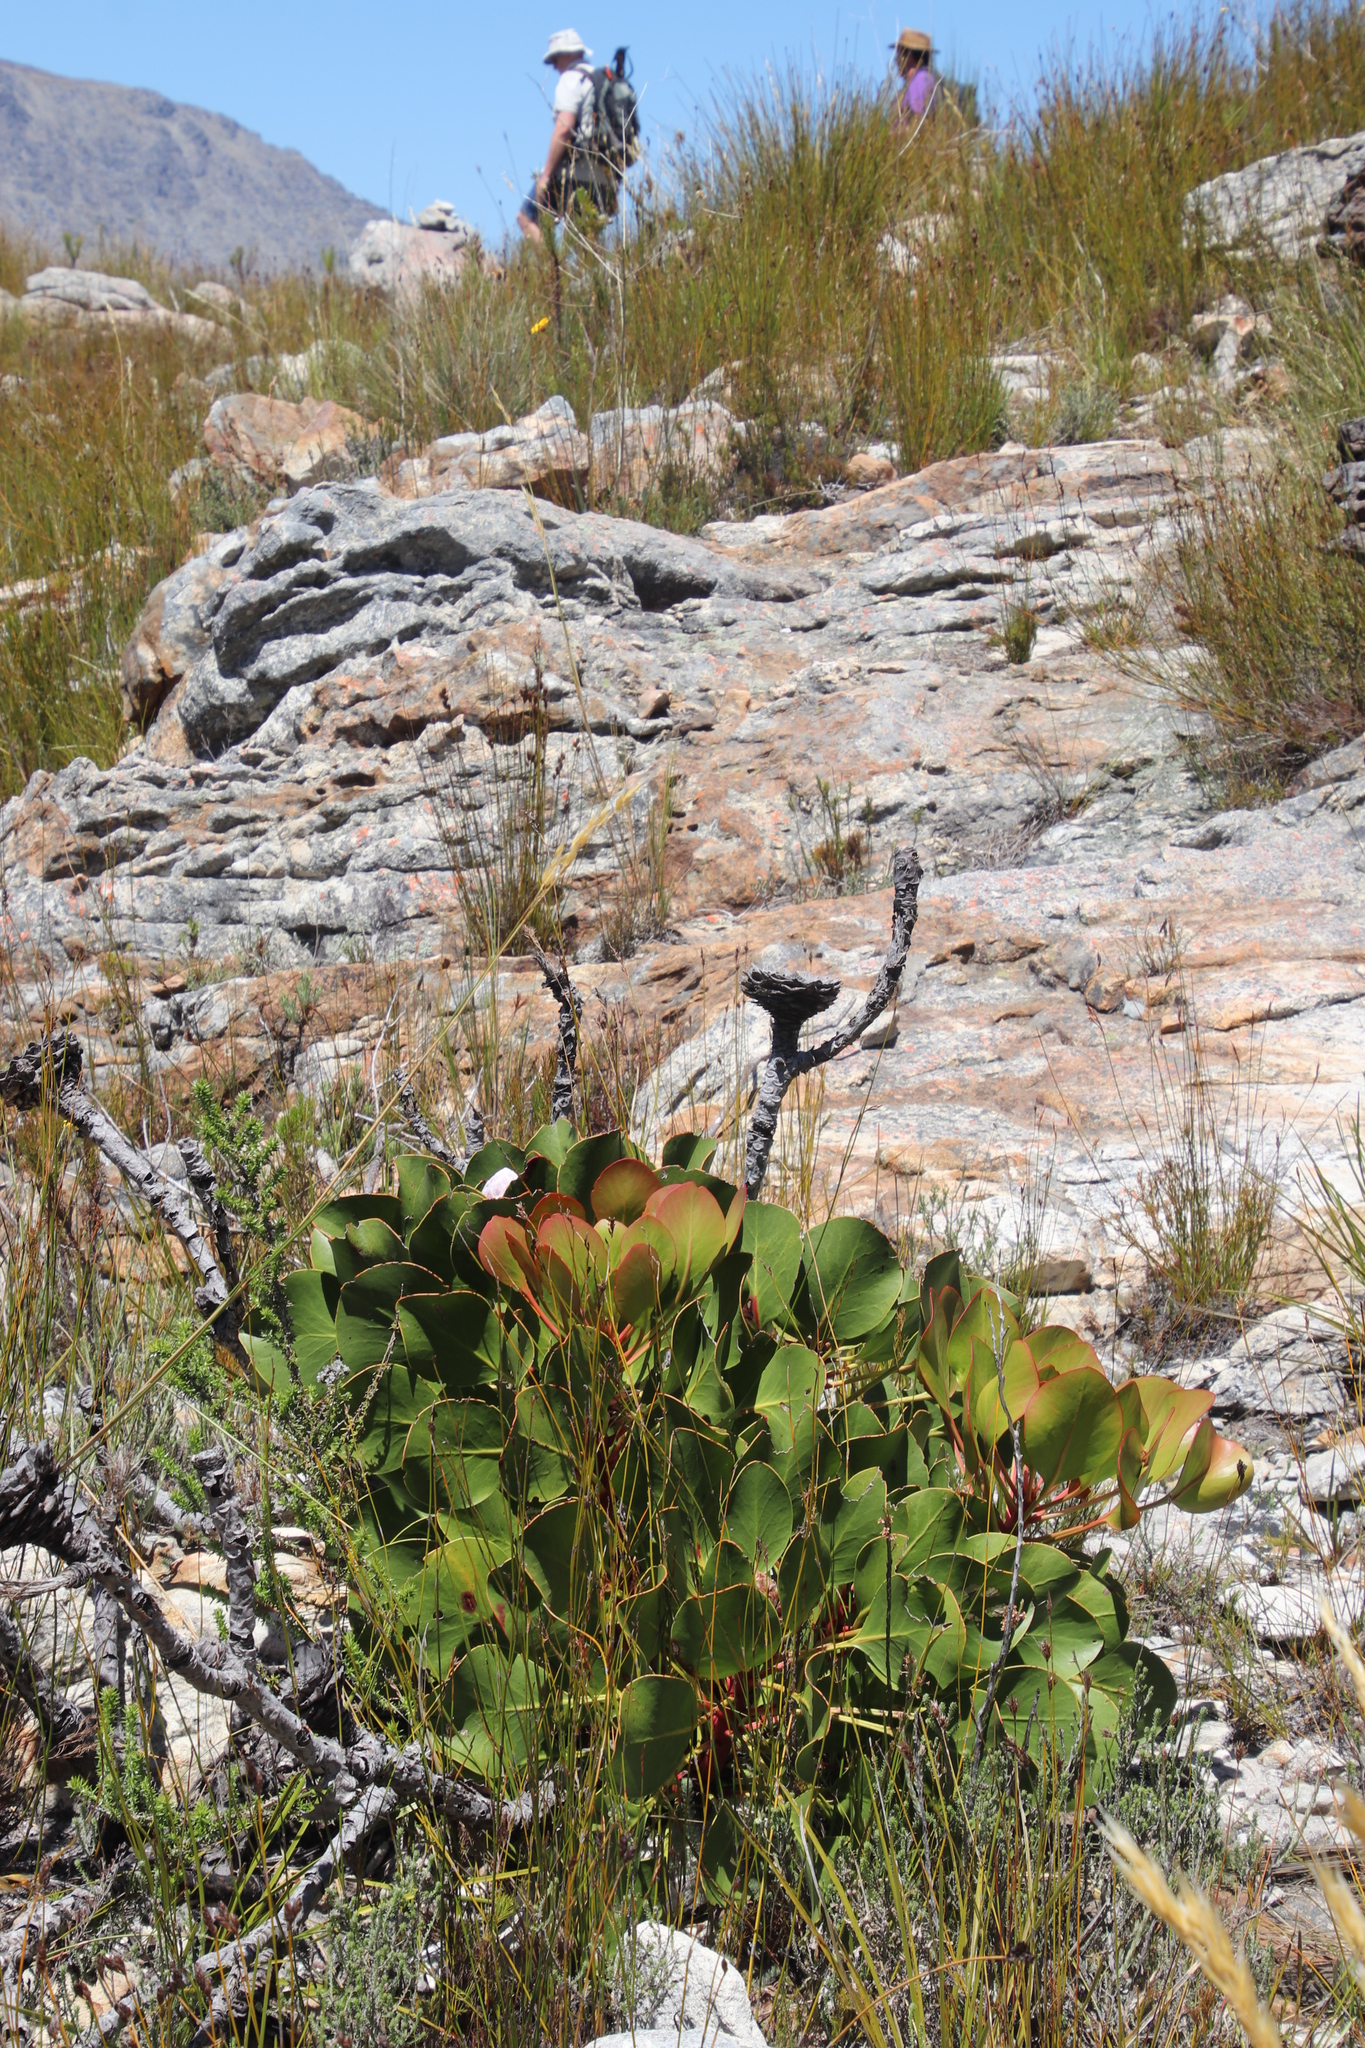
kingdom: Plantae
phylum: Tracheophyta
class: Magnoliopsida
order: Proteales
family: Proteaceae
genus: Protea
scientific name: Protea cynaroides
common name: King protea
